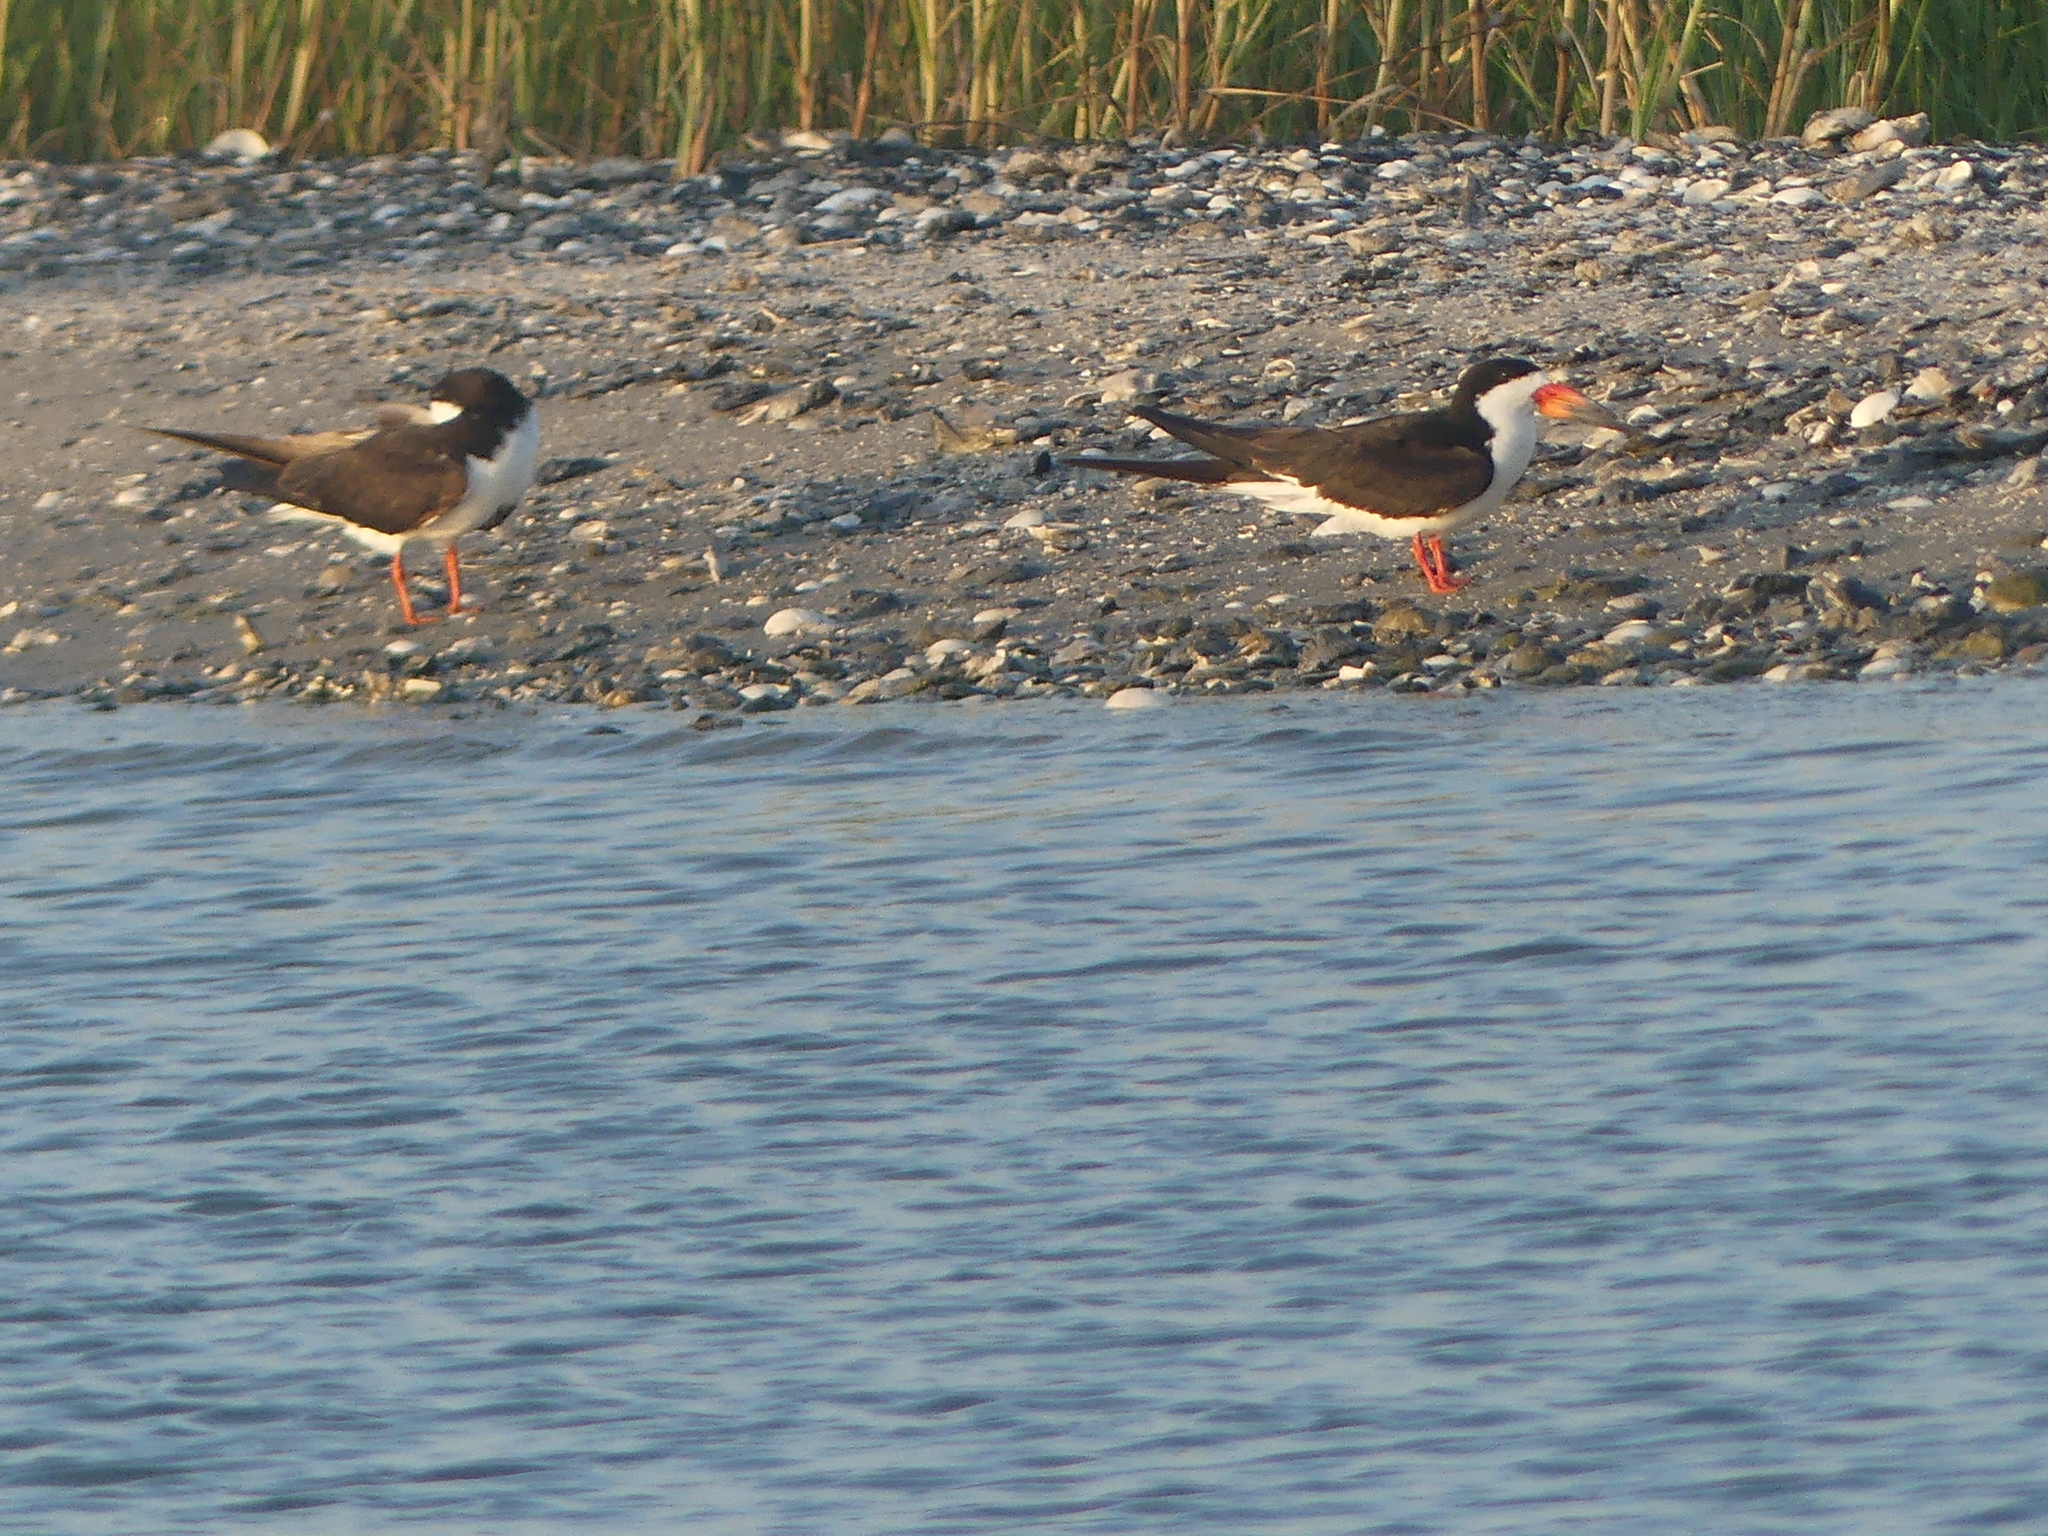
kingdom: Animalia
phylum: Chordata
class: Aves
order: Charadriiformes
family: Laridae
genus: Rynchops
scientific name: Rynchops niger
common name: Black skimmer
